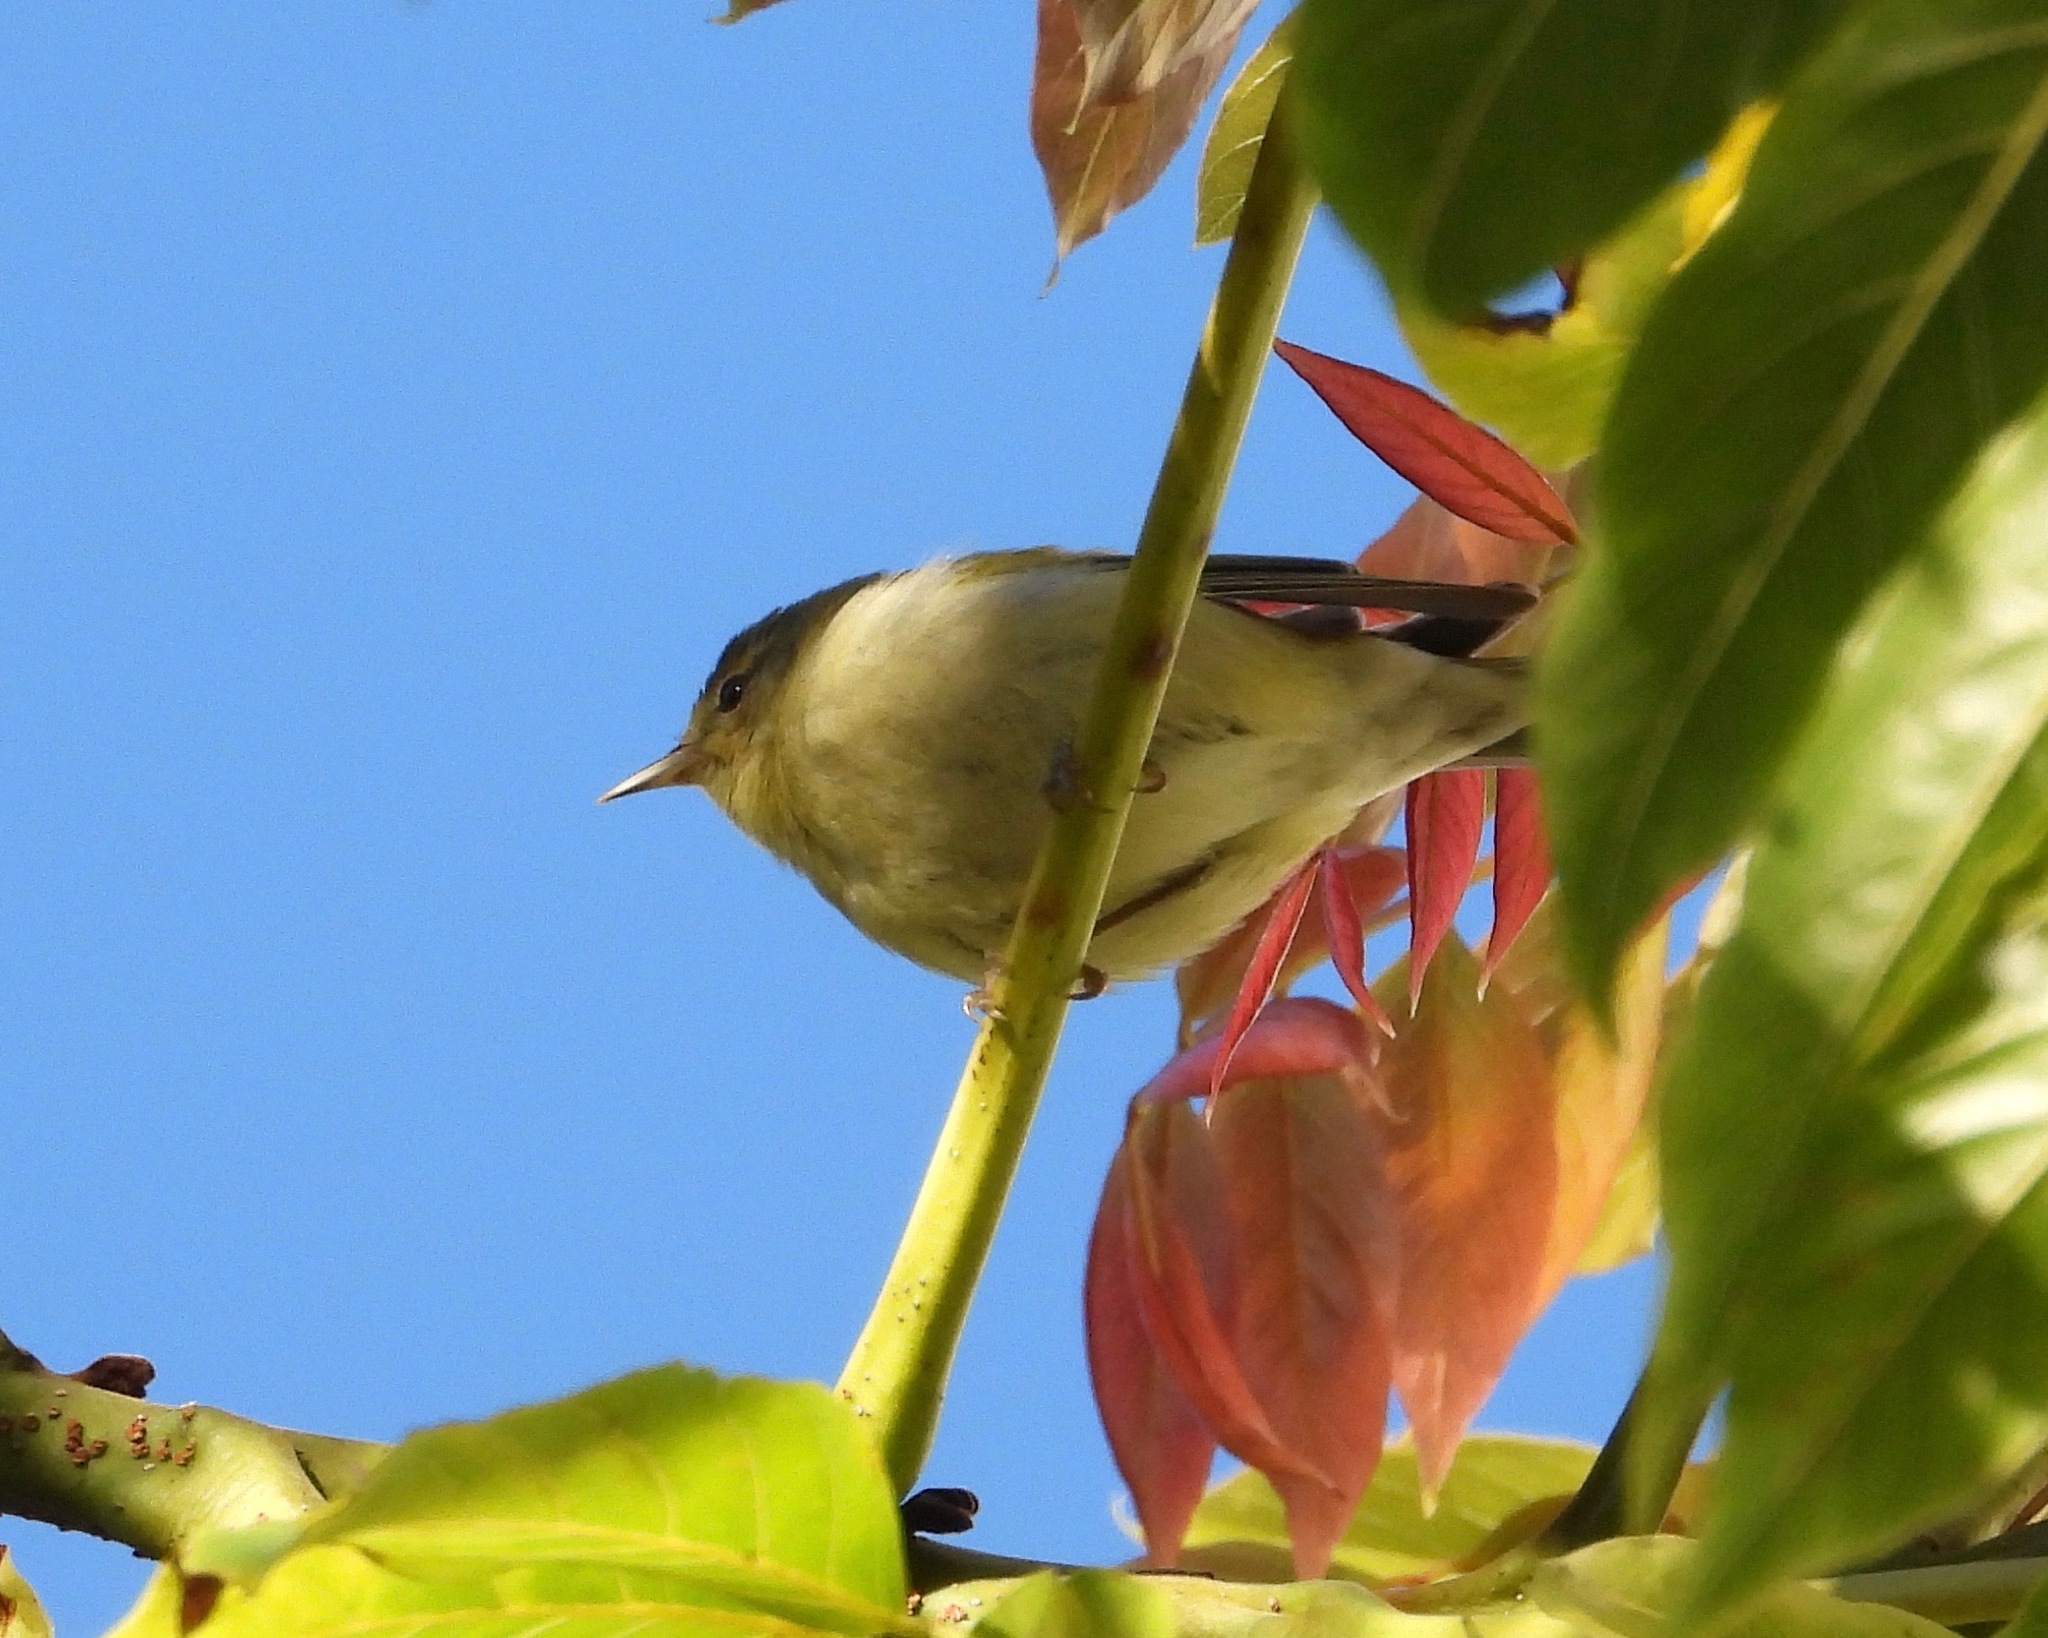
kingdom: Animalia
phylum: Chordata
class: Aves
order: Passeriformes
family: Parulidae
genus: Leiothlypis
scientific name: Leiothlypis peregrina
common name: Tennessee warbler
